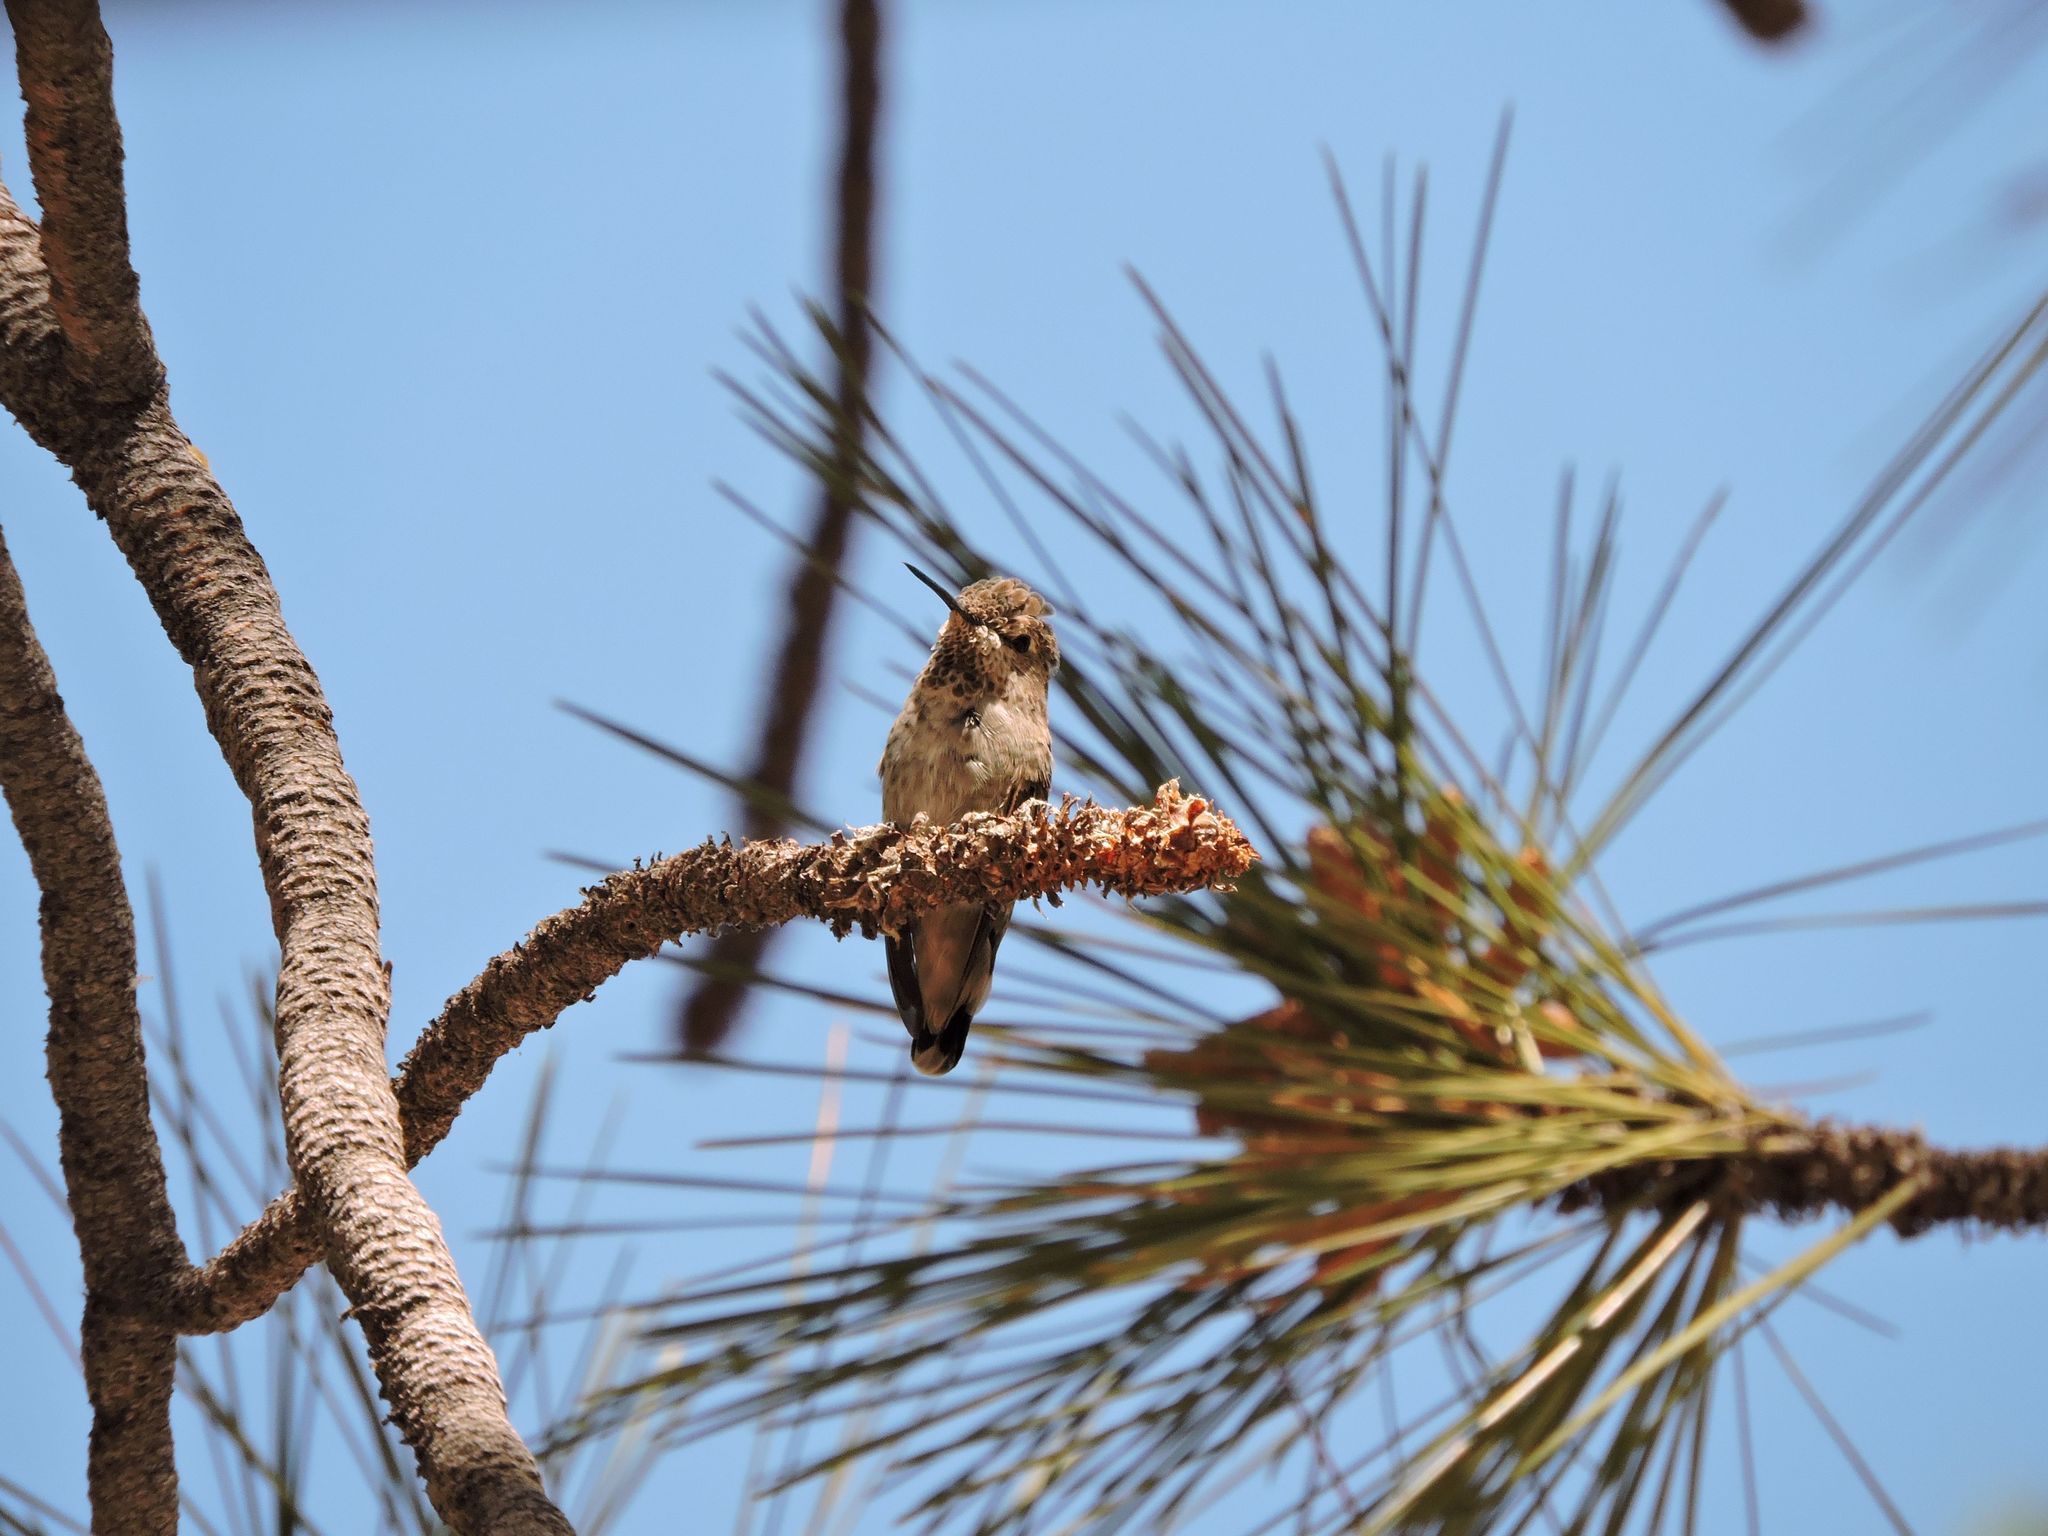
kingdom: Animalia
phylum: Chordata
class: Aves
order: Apodiformes
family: Trochilidae
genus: Calypte
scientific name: Calypte anna
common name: Anna's hummingbird
